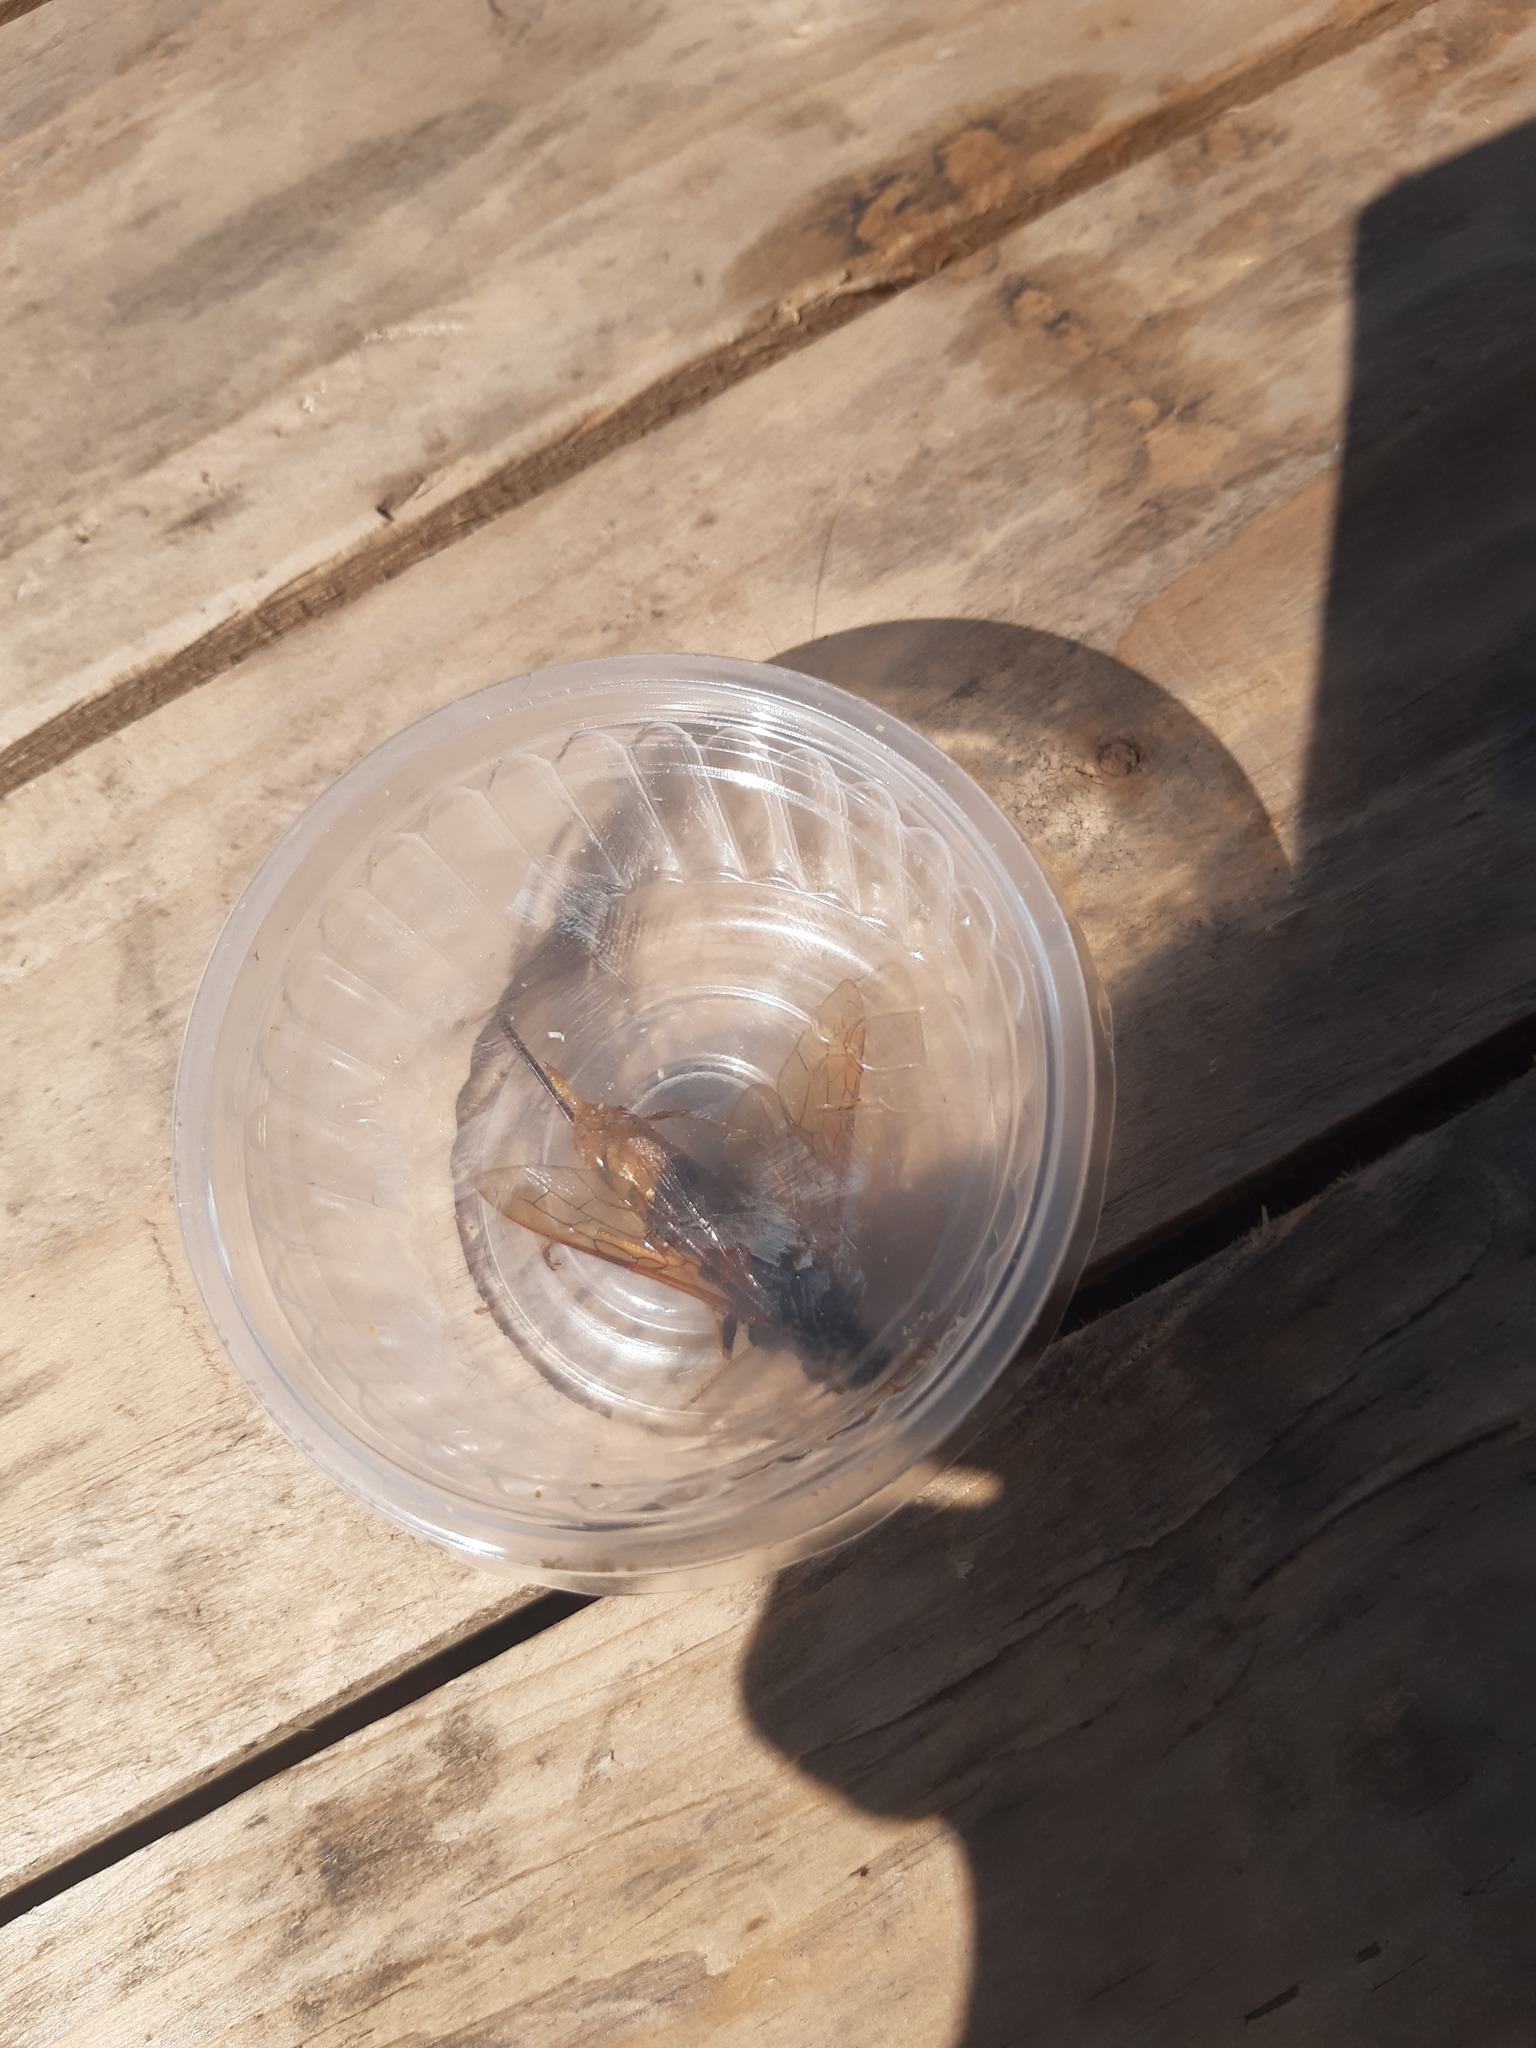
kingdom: Animalia
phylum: Arthropoda
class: Insecta
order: Hymenoptera
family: Siricidae
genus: Urocerus
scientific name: Urocerus gigas
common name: Giant woodwasp
